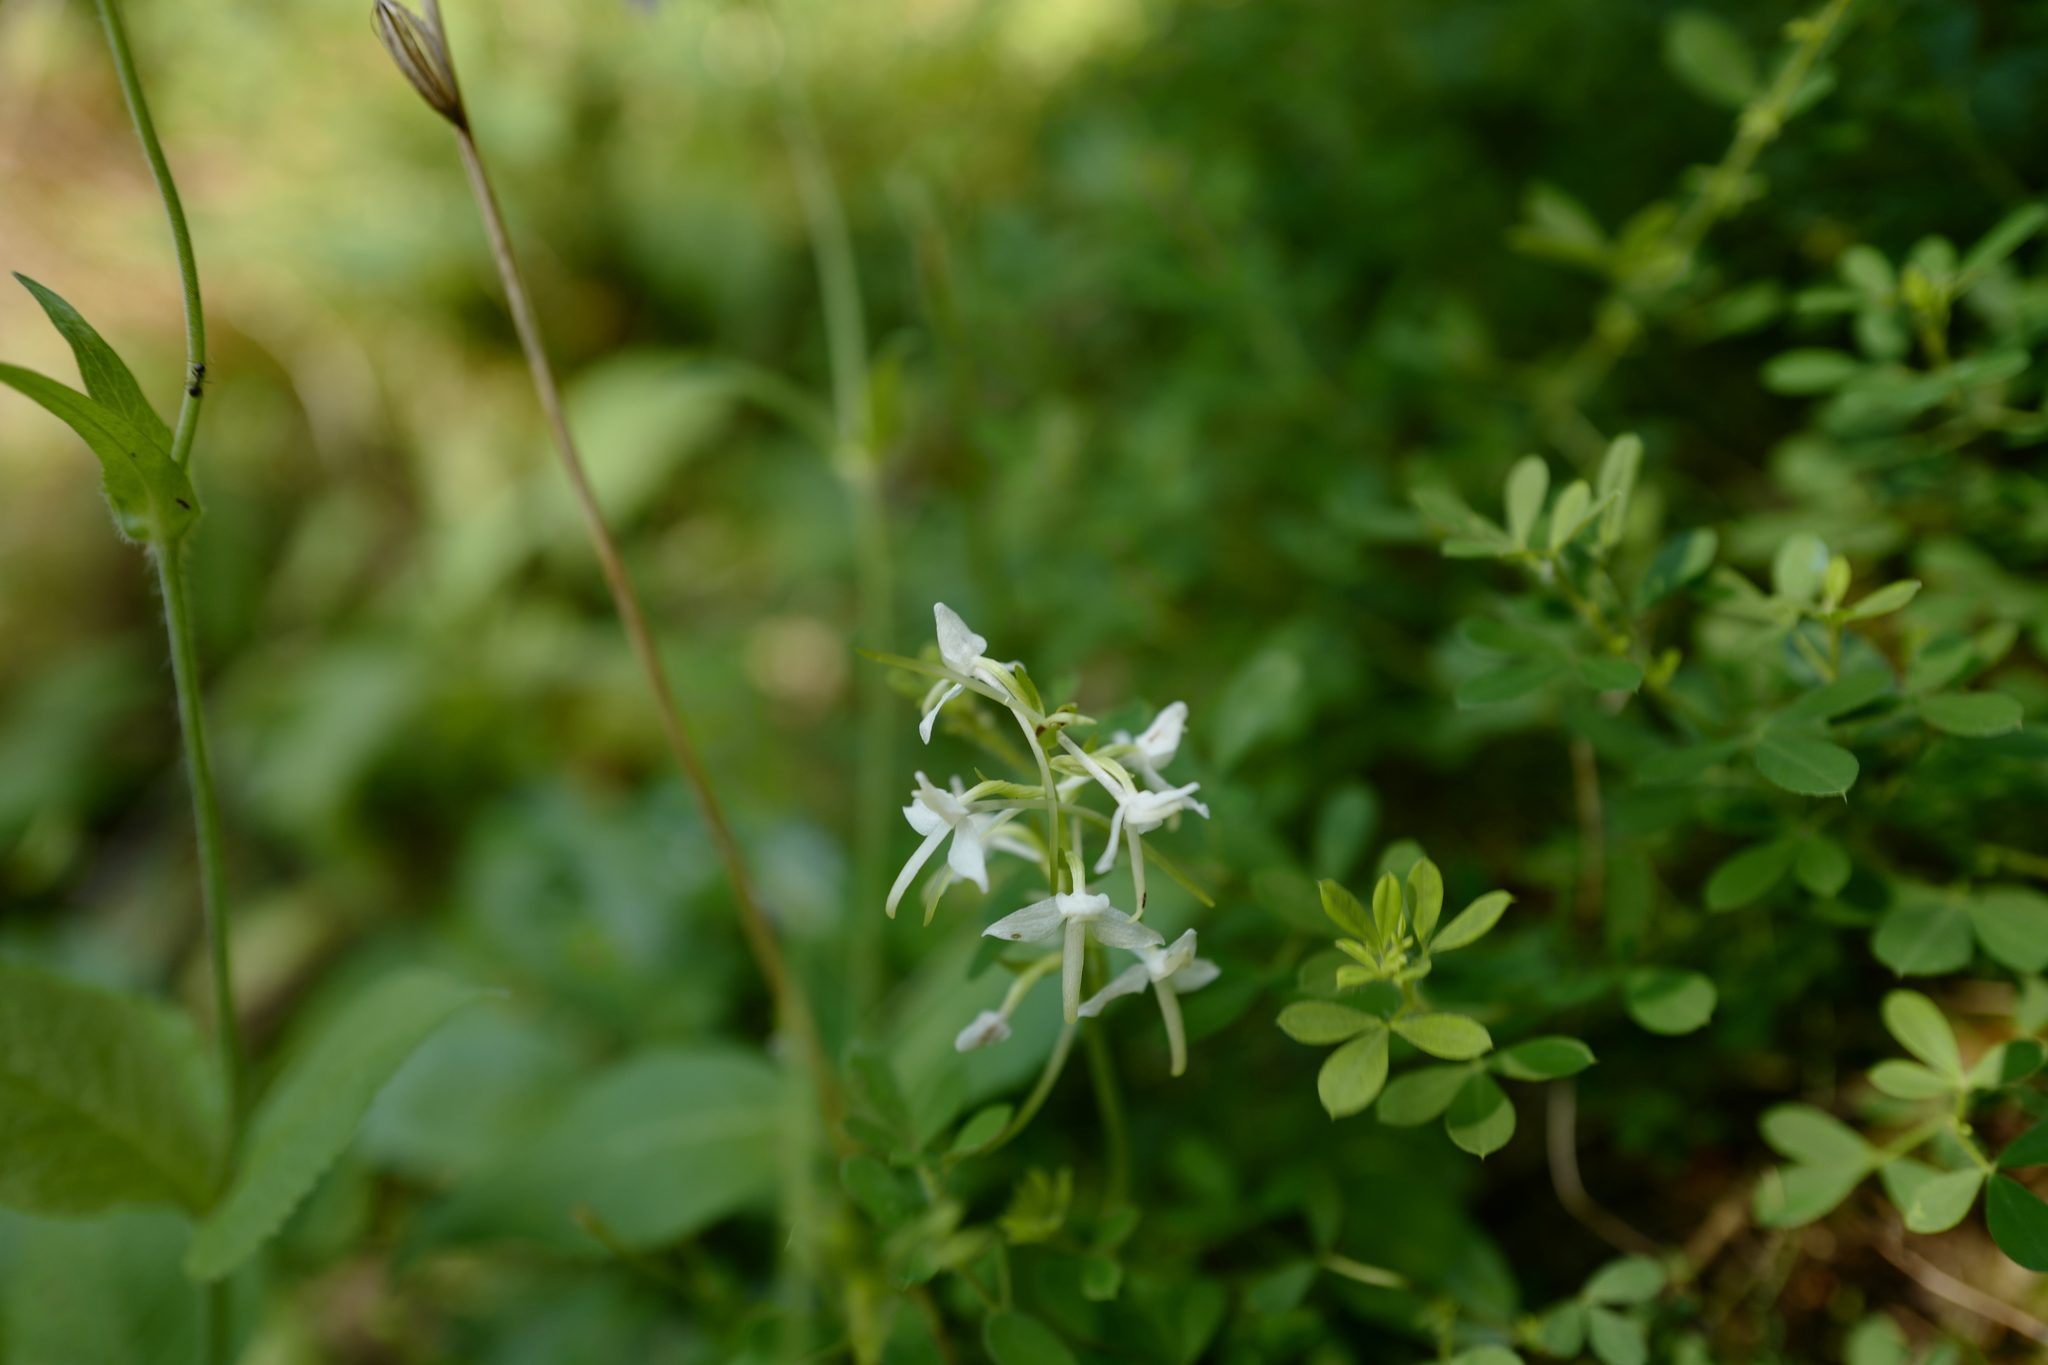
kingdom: Plantae
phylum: Tracheophyta
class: Liliopsida
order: Asparagales
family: Orchidaceae
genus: Platanthera
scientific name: Platanthera bifolia
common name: Lesser butterfly-orchid
